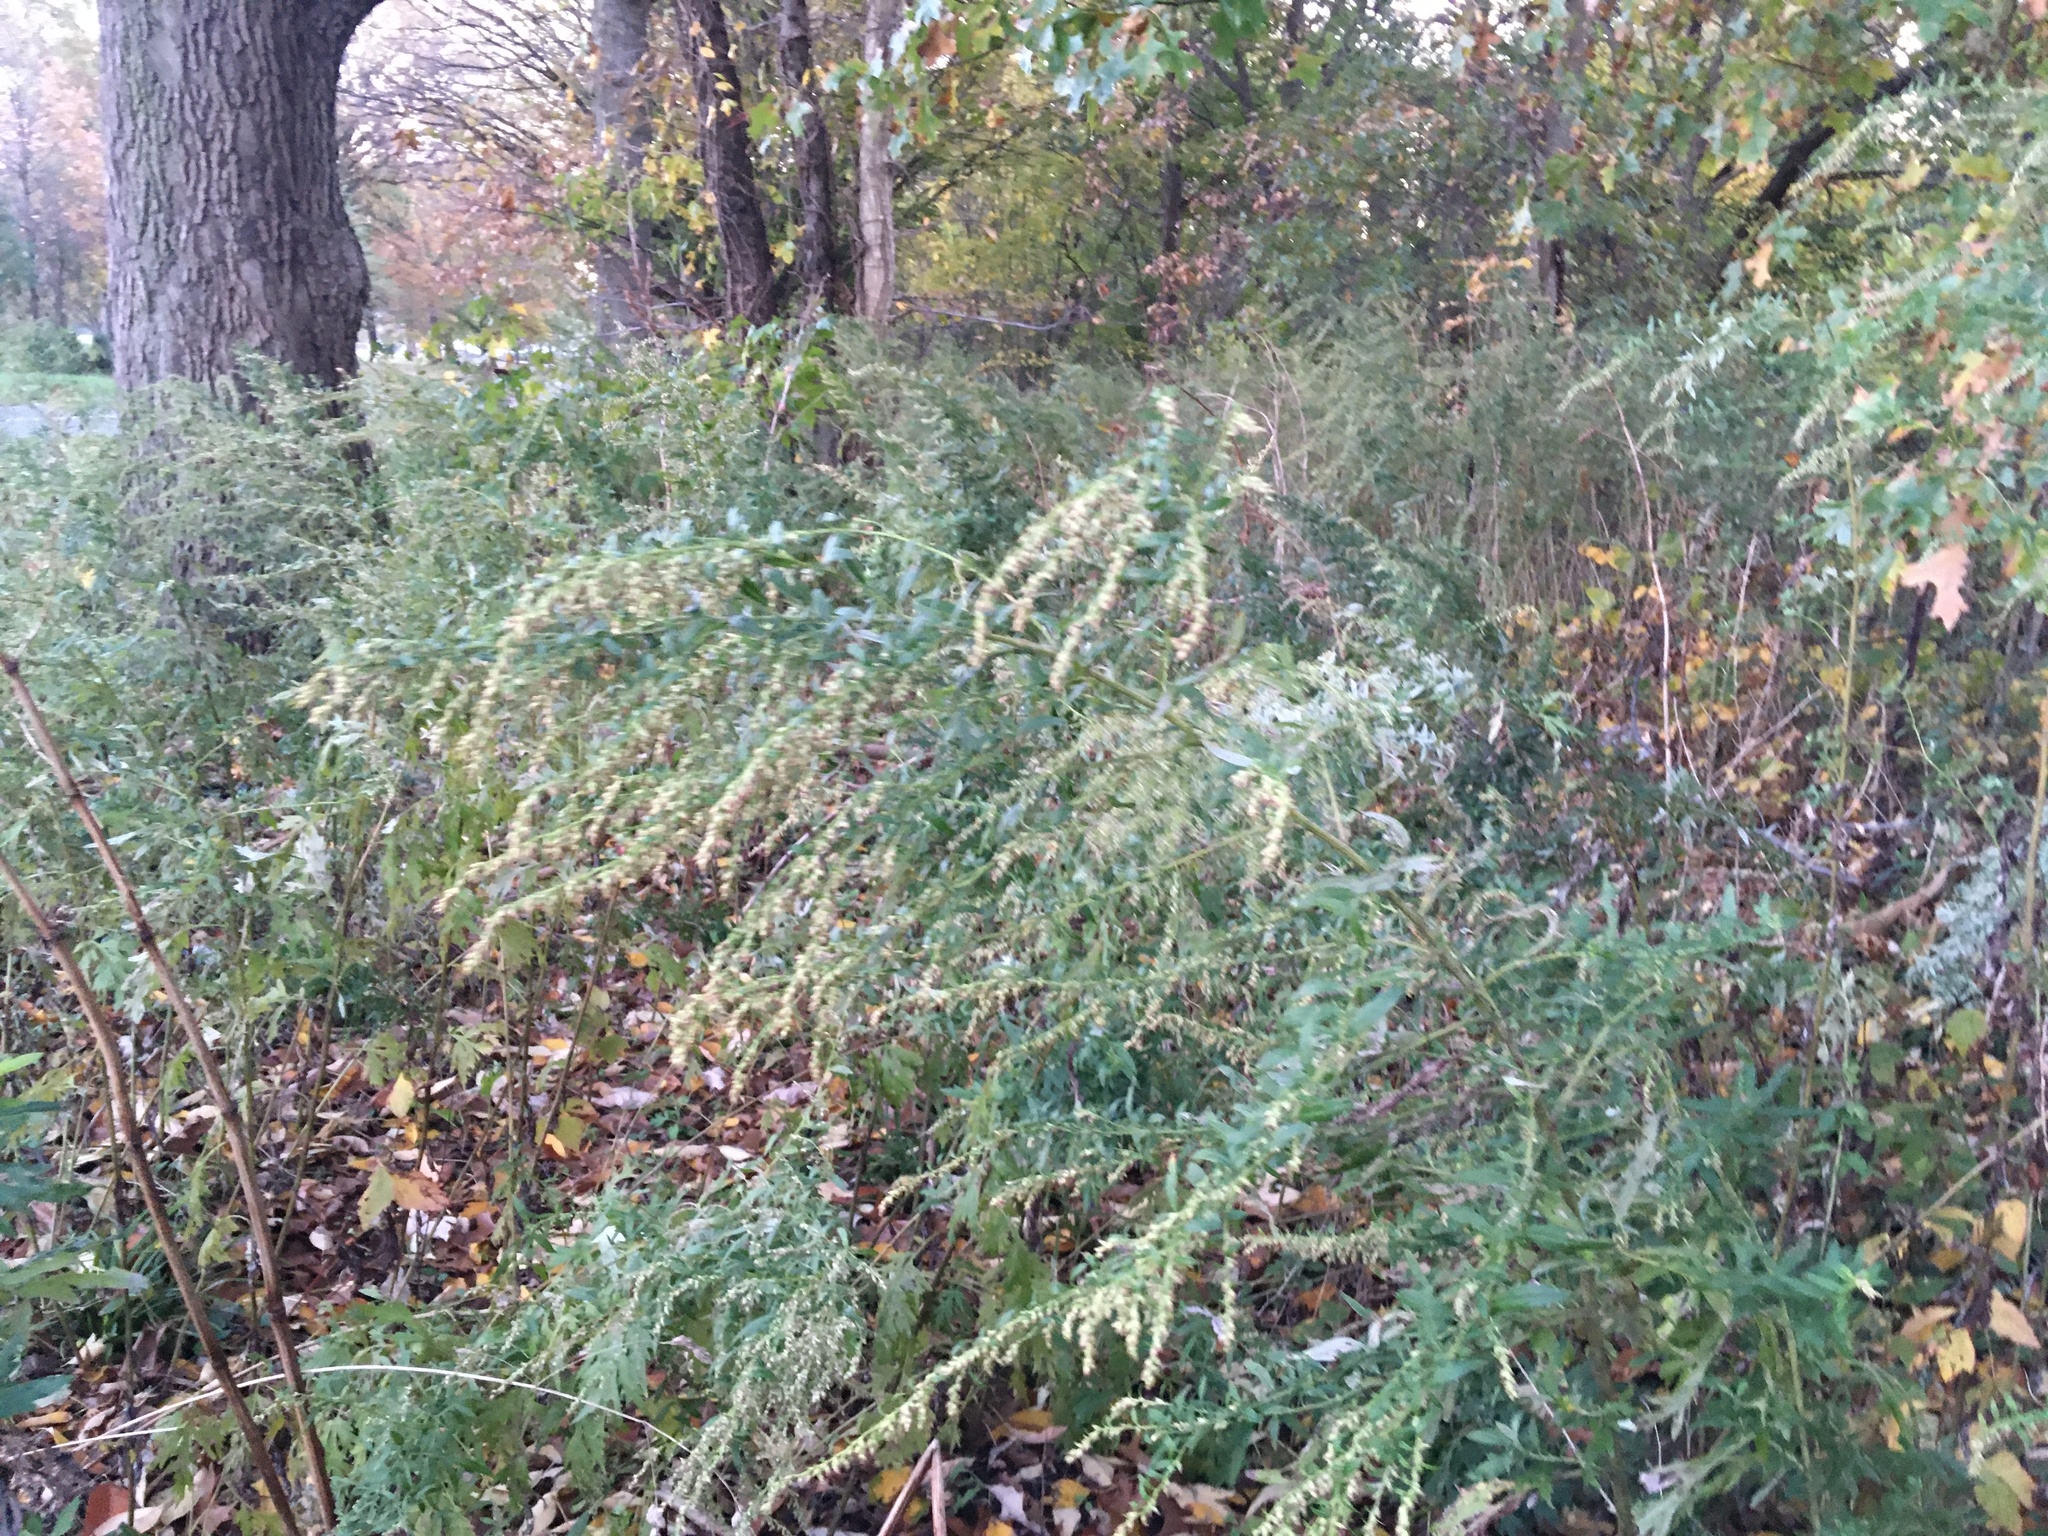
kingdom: Plantae
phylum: Tracheophyta
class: Magnoliopsida
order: Asterales
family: Asteraceae
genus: Artemisia
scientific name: Artemisia vulgaris
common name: Mugwort
